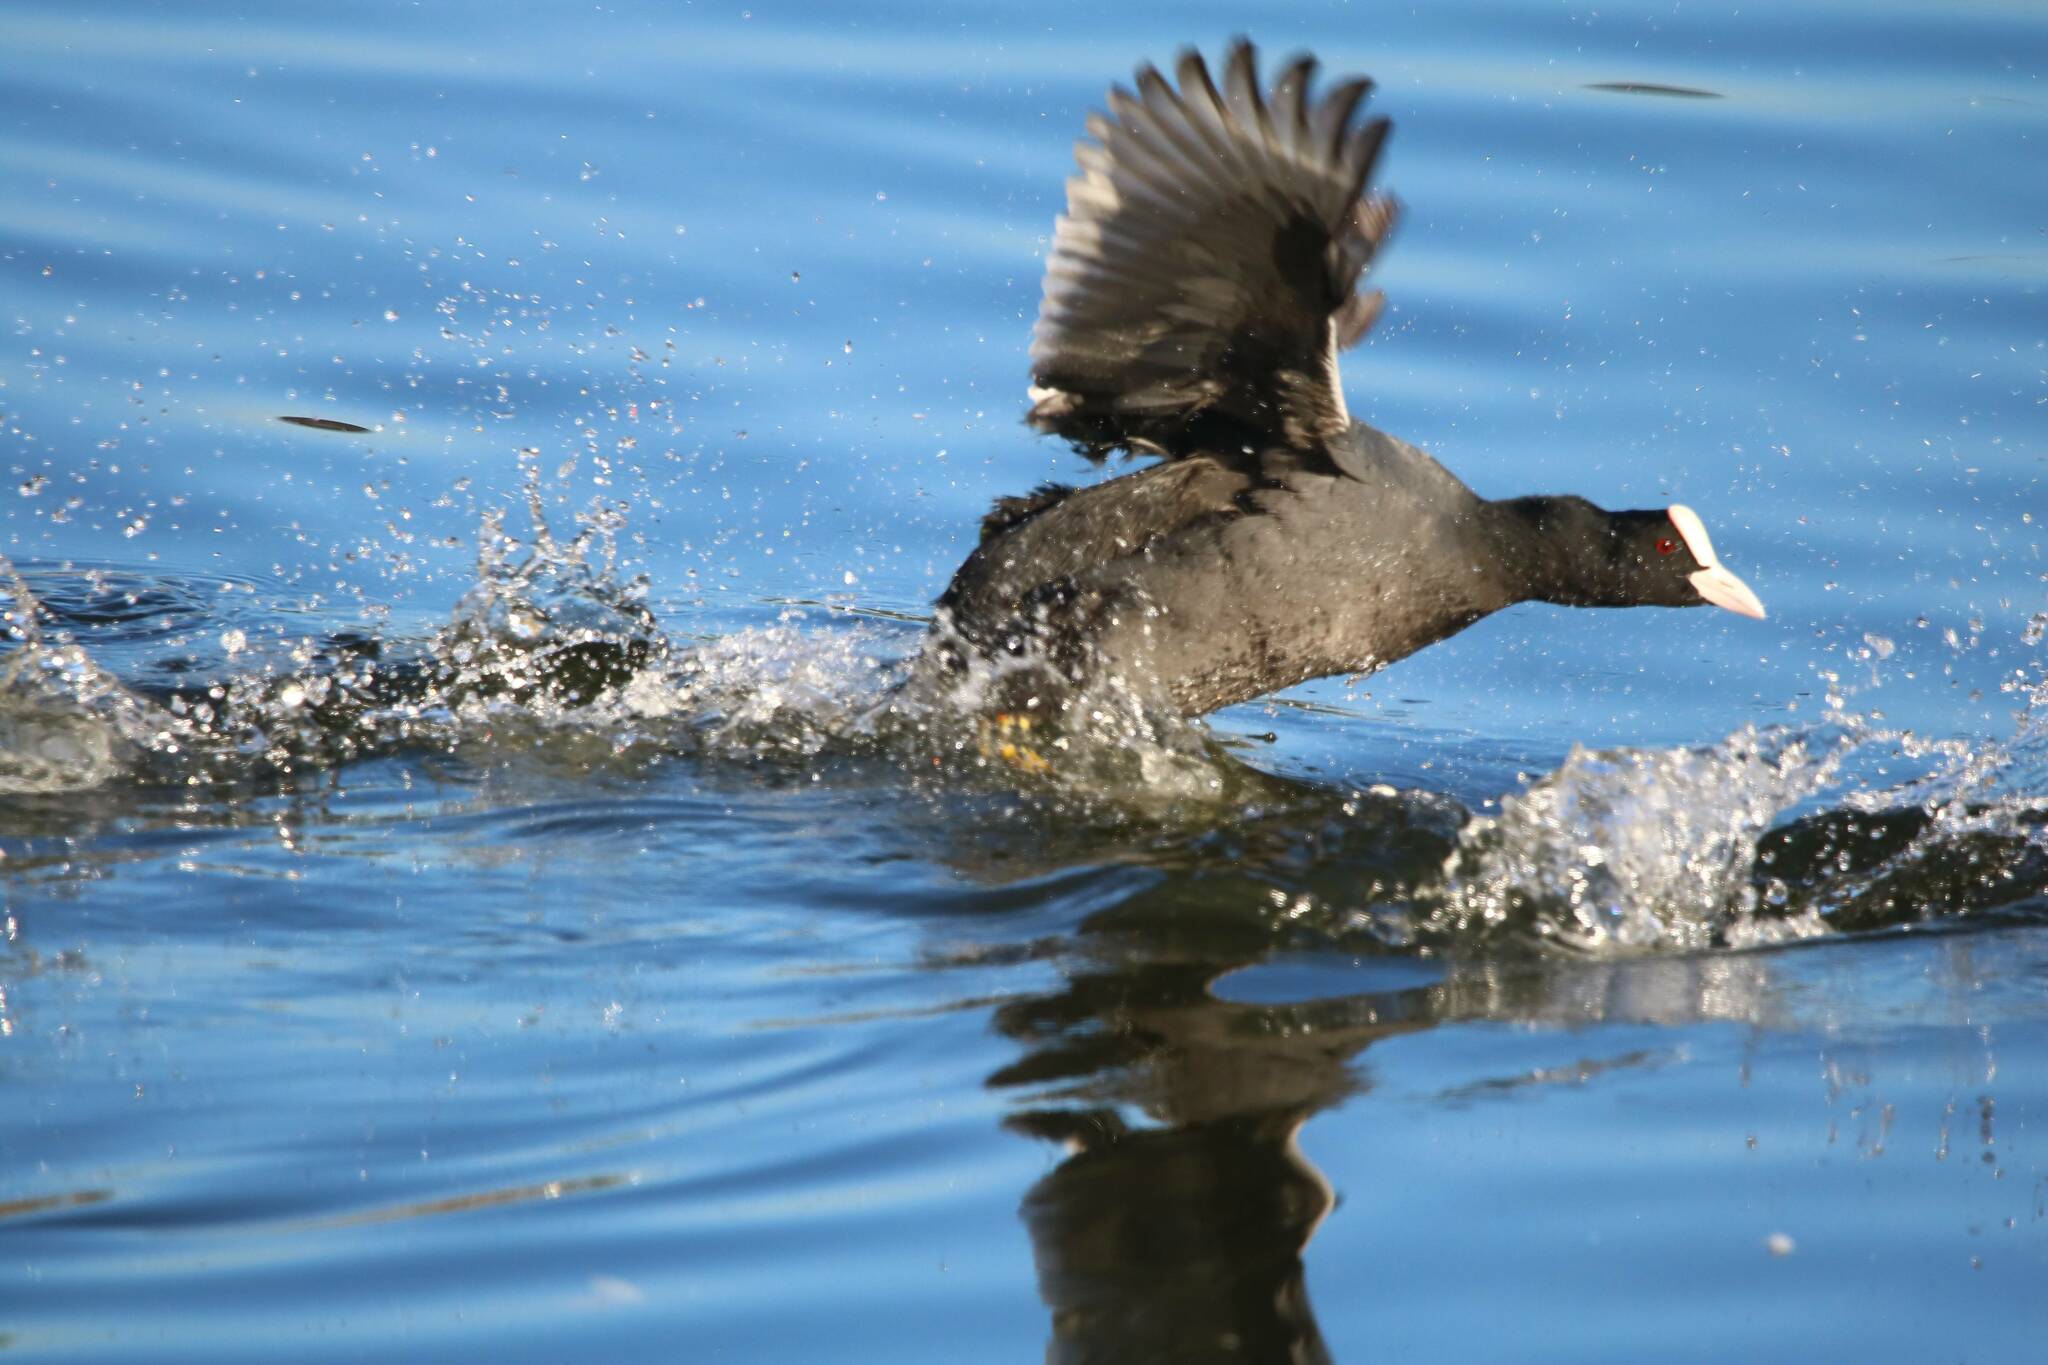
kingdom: Animalia
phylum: Chordata
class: Aves
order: Gruiformes
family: Rallidae
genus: Fulica
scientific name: Fulica atra
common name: Eurasian coot
